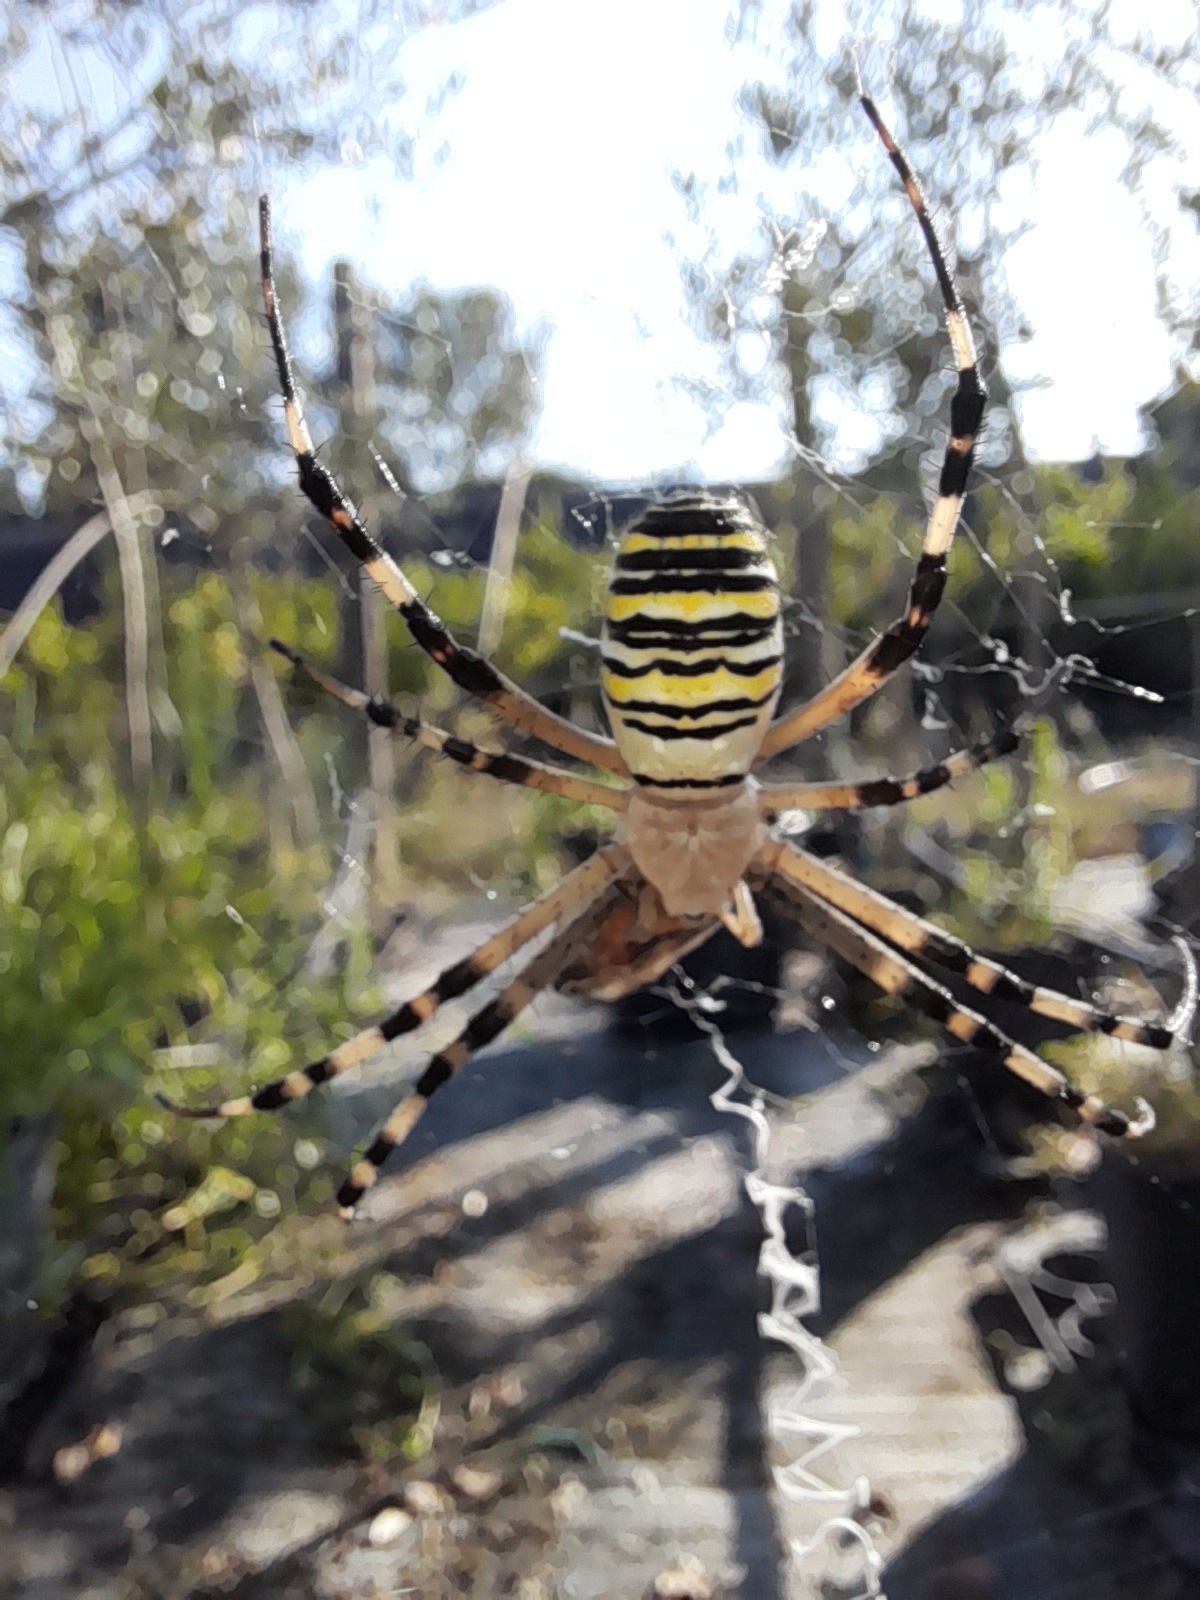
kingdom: Animalia
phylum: Arthropoda
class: Arachnida
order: Araneae
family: Araneidae
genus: Argiope
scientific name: Argiope bruennichi
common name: Wasp spider
